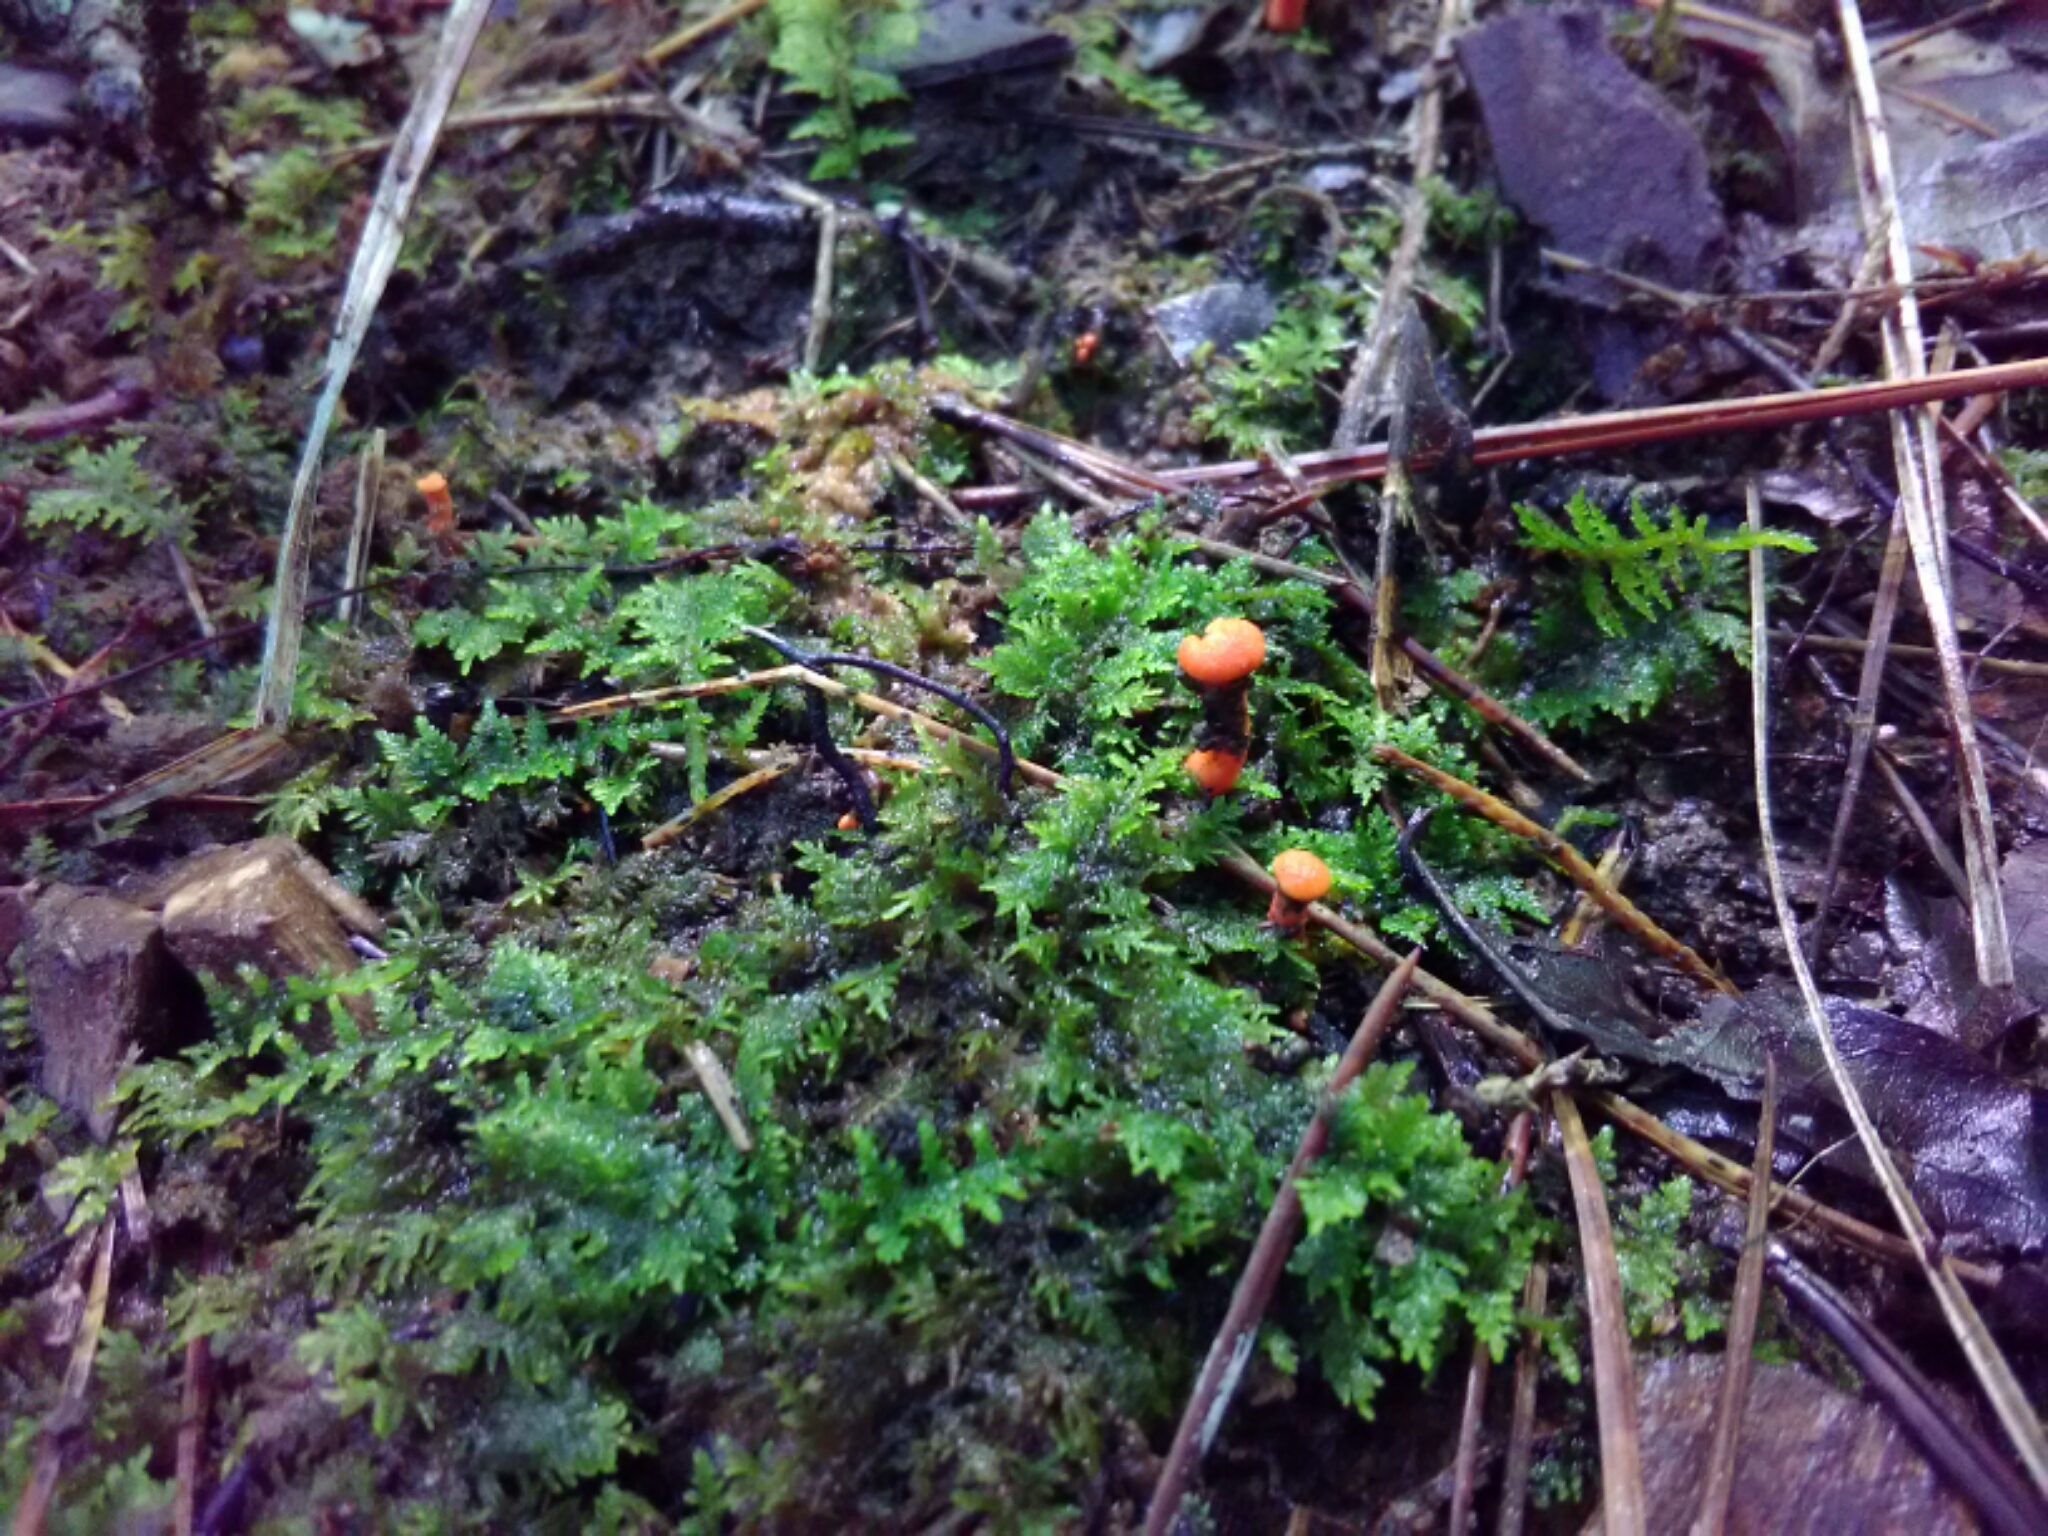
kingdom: Fungi
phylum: Basidiomycota
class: Agaricomycetes
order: Cantharellales
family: Hydnaceae
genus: Cantharellus
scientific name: Cantharellus cinnabarinus
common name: Cinnabar chanterelle
